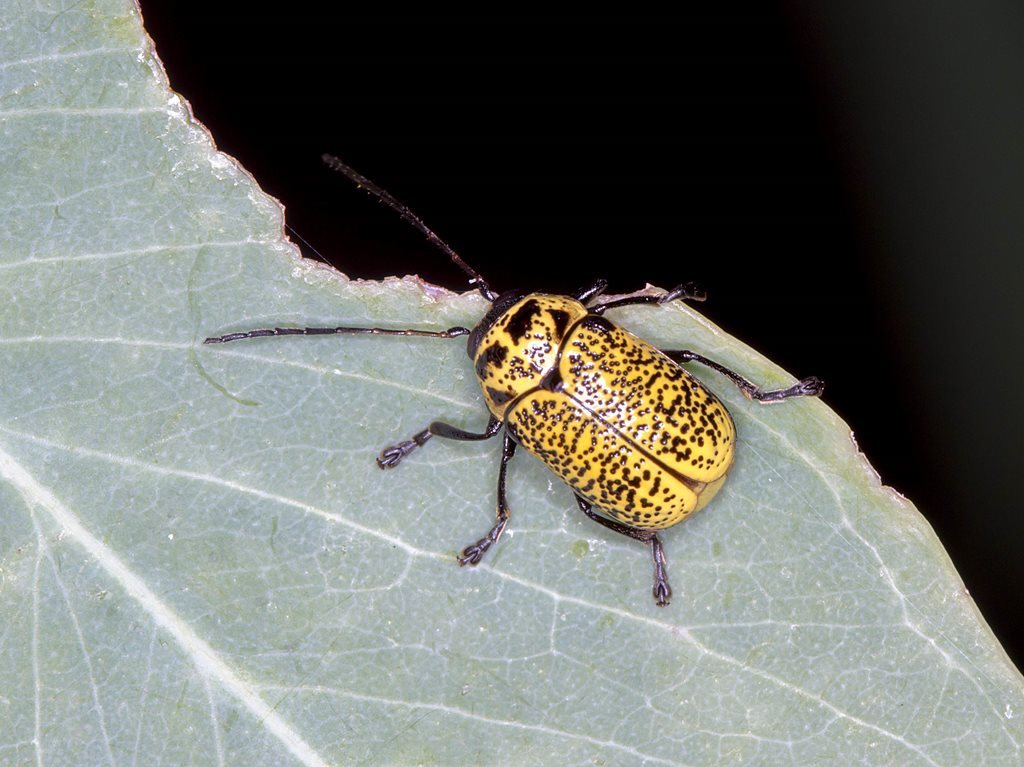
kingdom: Animalia
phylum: Arthropoda
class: Insecta
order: Coleoptera
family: Chrysomelidae
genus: Aporocera
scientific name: Aporocera
